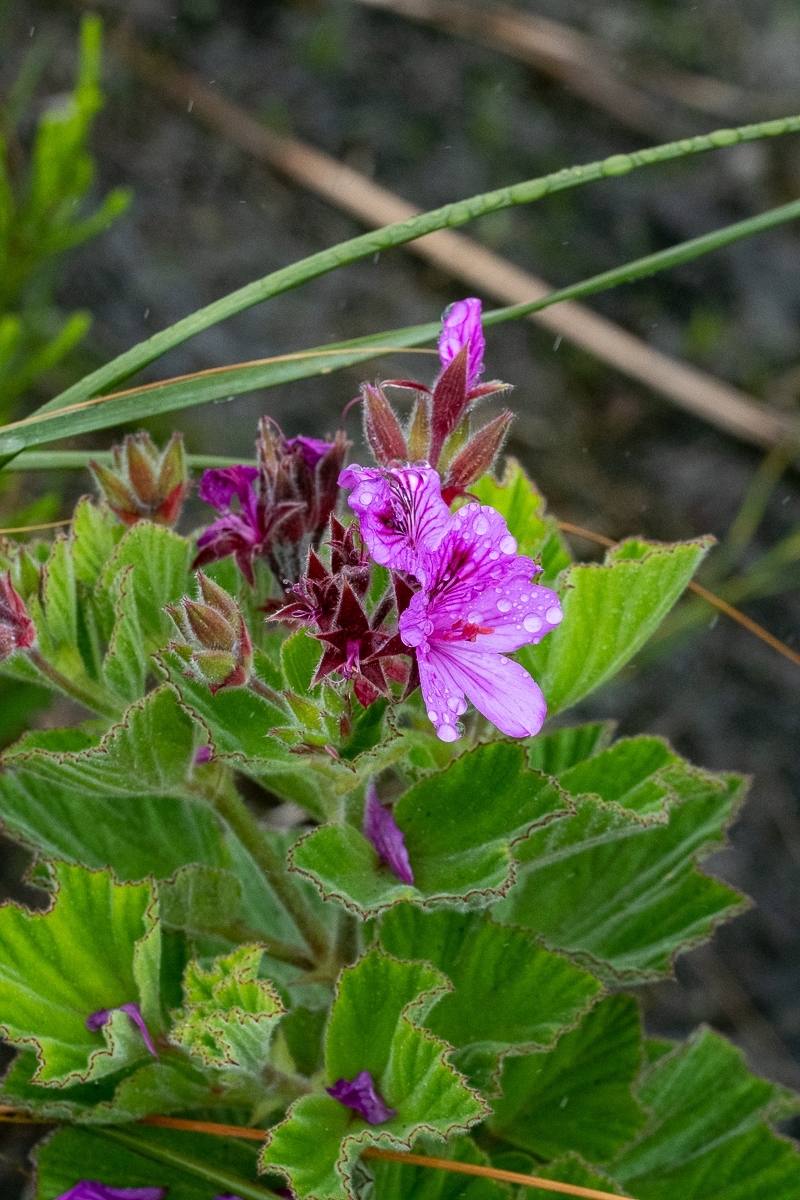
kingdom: Plantae
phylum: Tracheophyta
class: Magnoliopsida
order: Geraniales
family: Geraniaceae
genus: Pelargonium
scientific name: Pelargonium cucullatum
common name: Tree pelargonium
